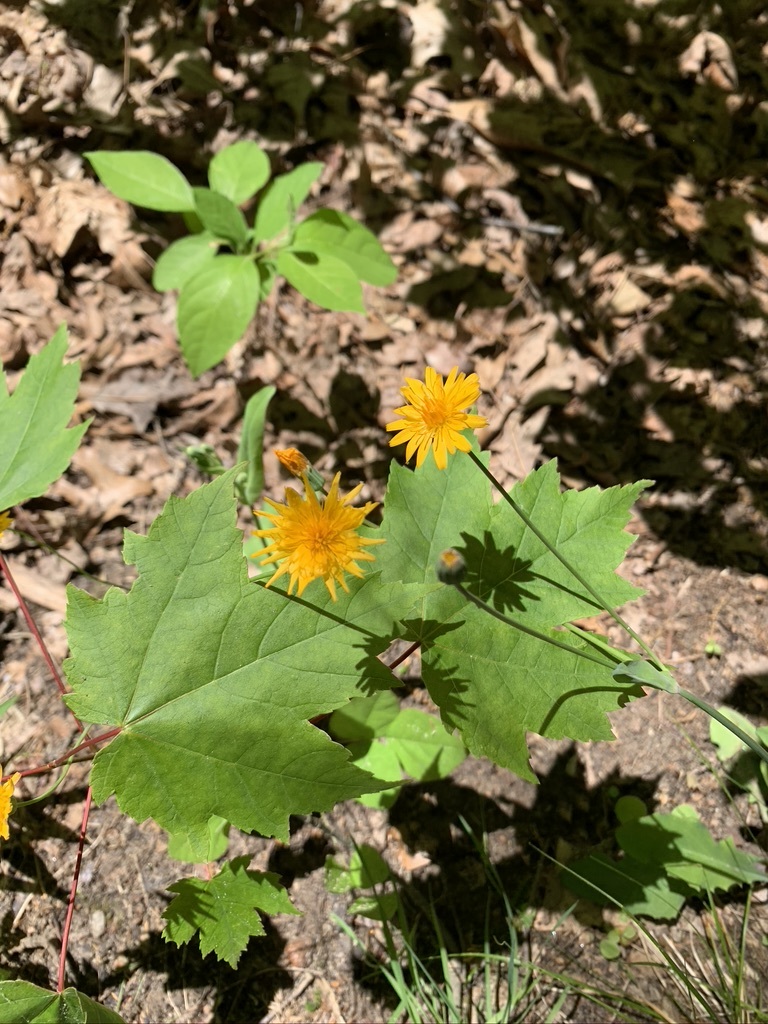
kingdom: Plantae
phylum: Tracheophyta
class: Magnoliopsida
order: Asterales
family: Asteraceae
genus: Krigia
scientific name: Krigia biflora
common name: Orange dwarf-dandelion
